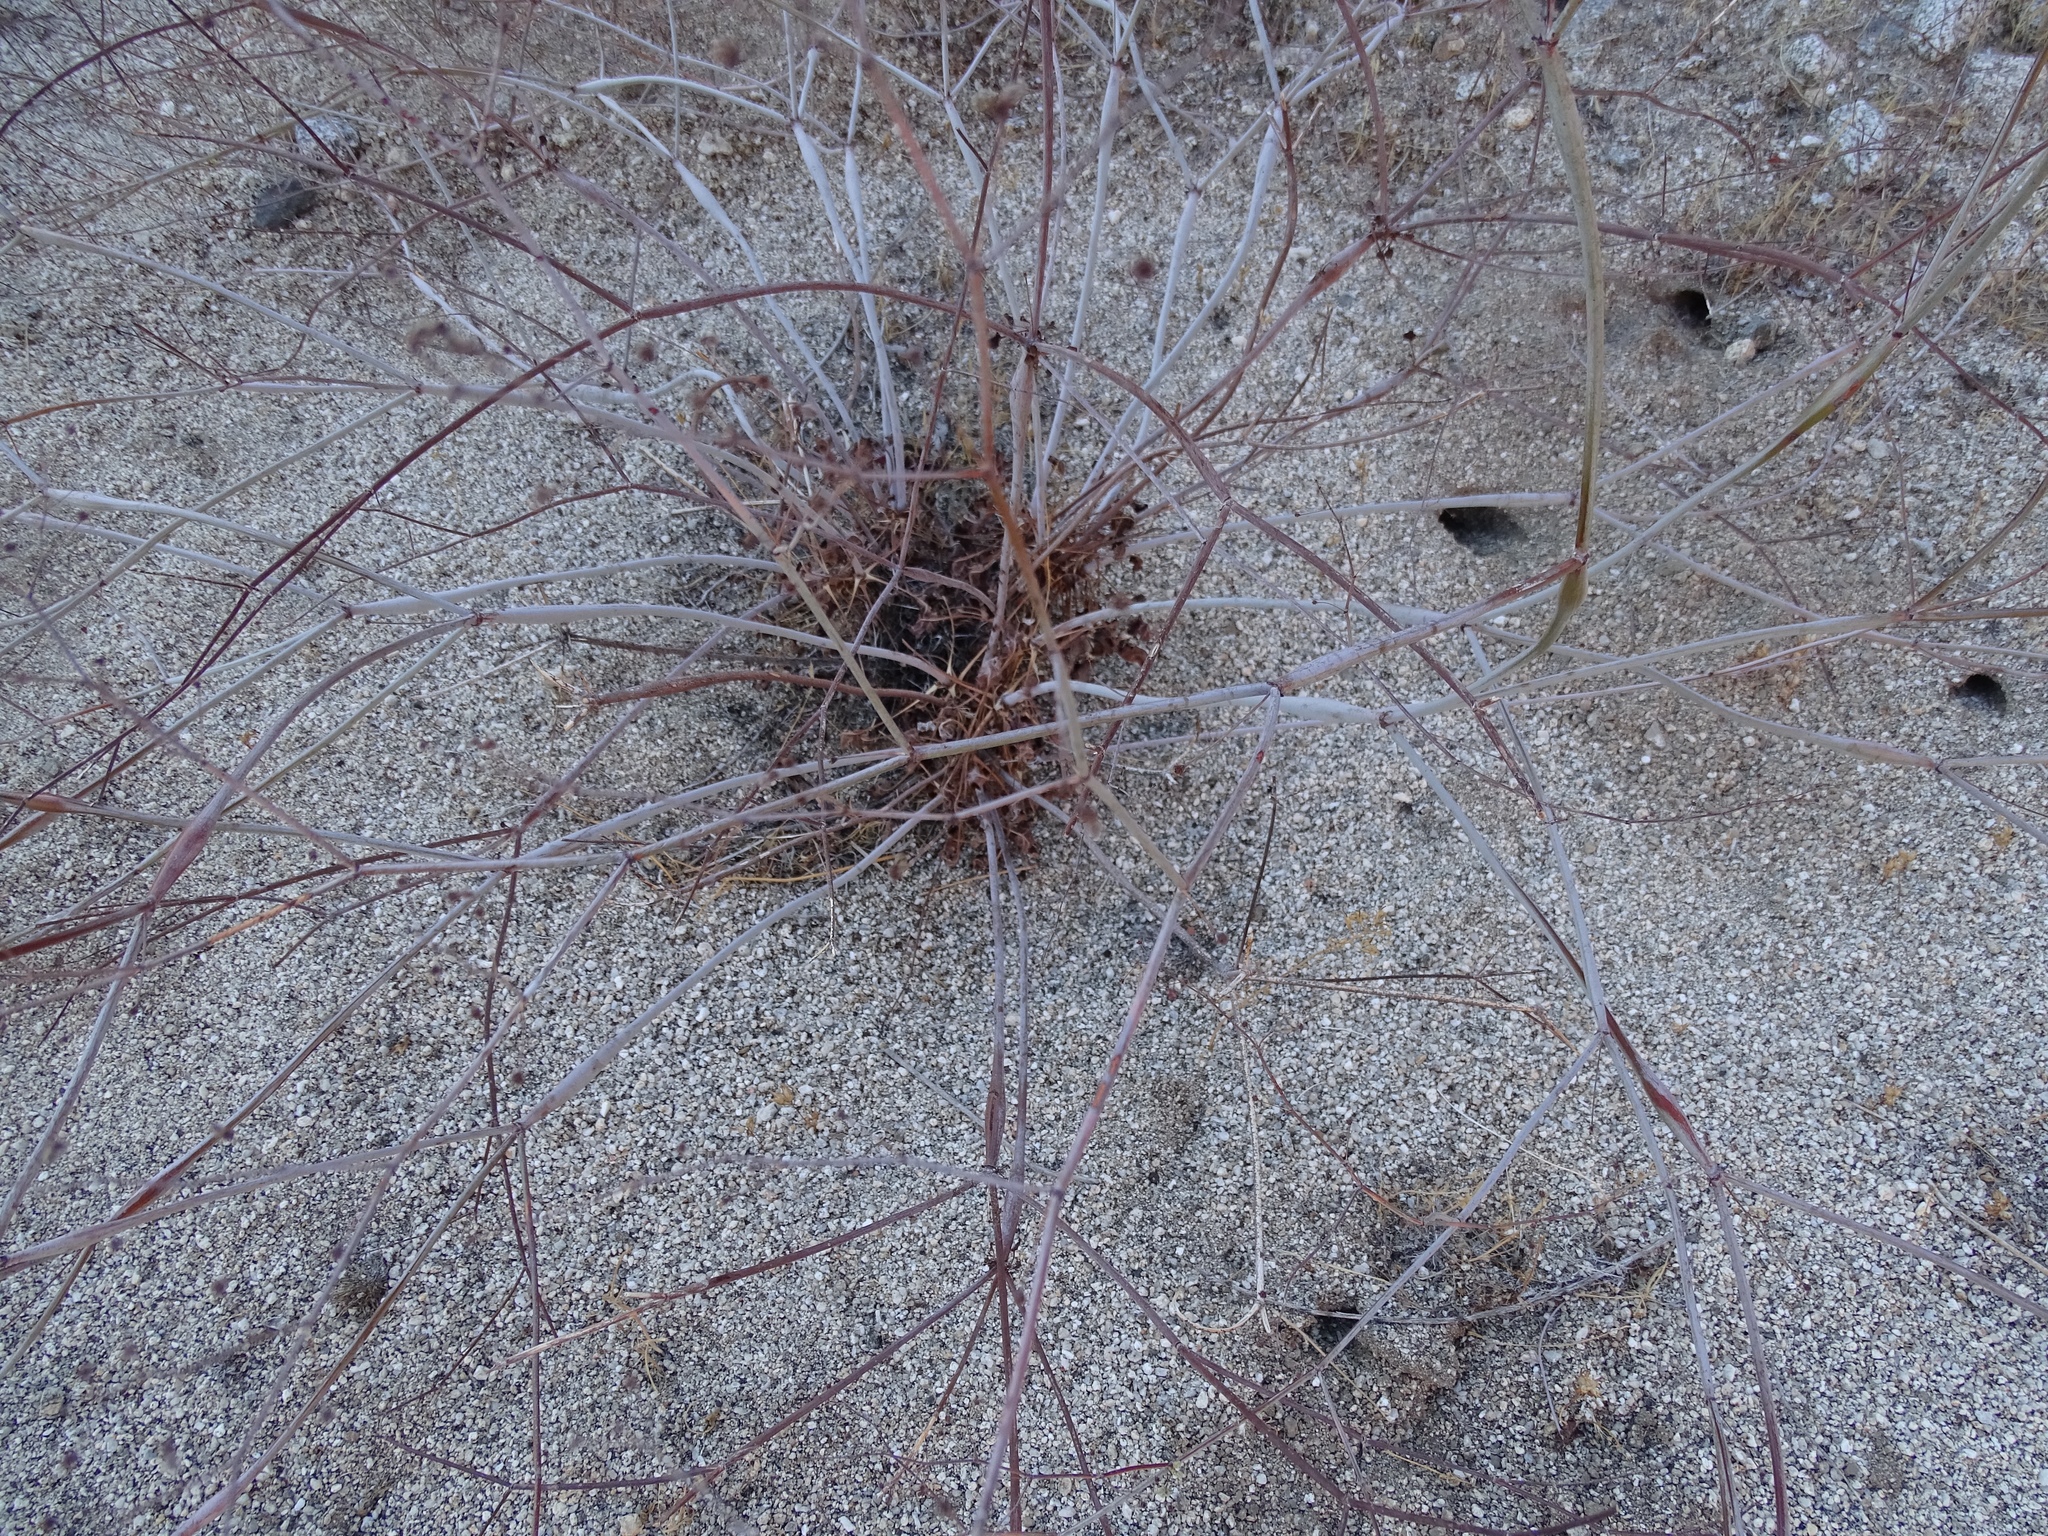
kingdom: Plantae
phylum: Tracheophyta
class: Magnoliopsida
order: Caryophyllales
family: Polygonaceae
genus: Eriogonum
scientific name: Eriogonum inflatum
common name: Desert trumpet
